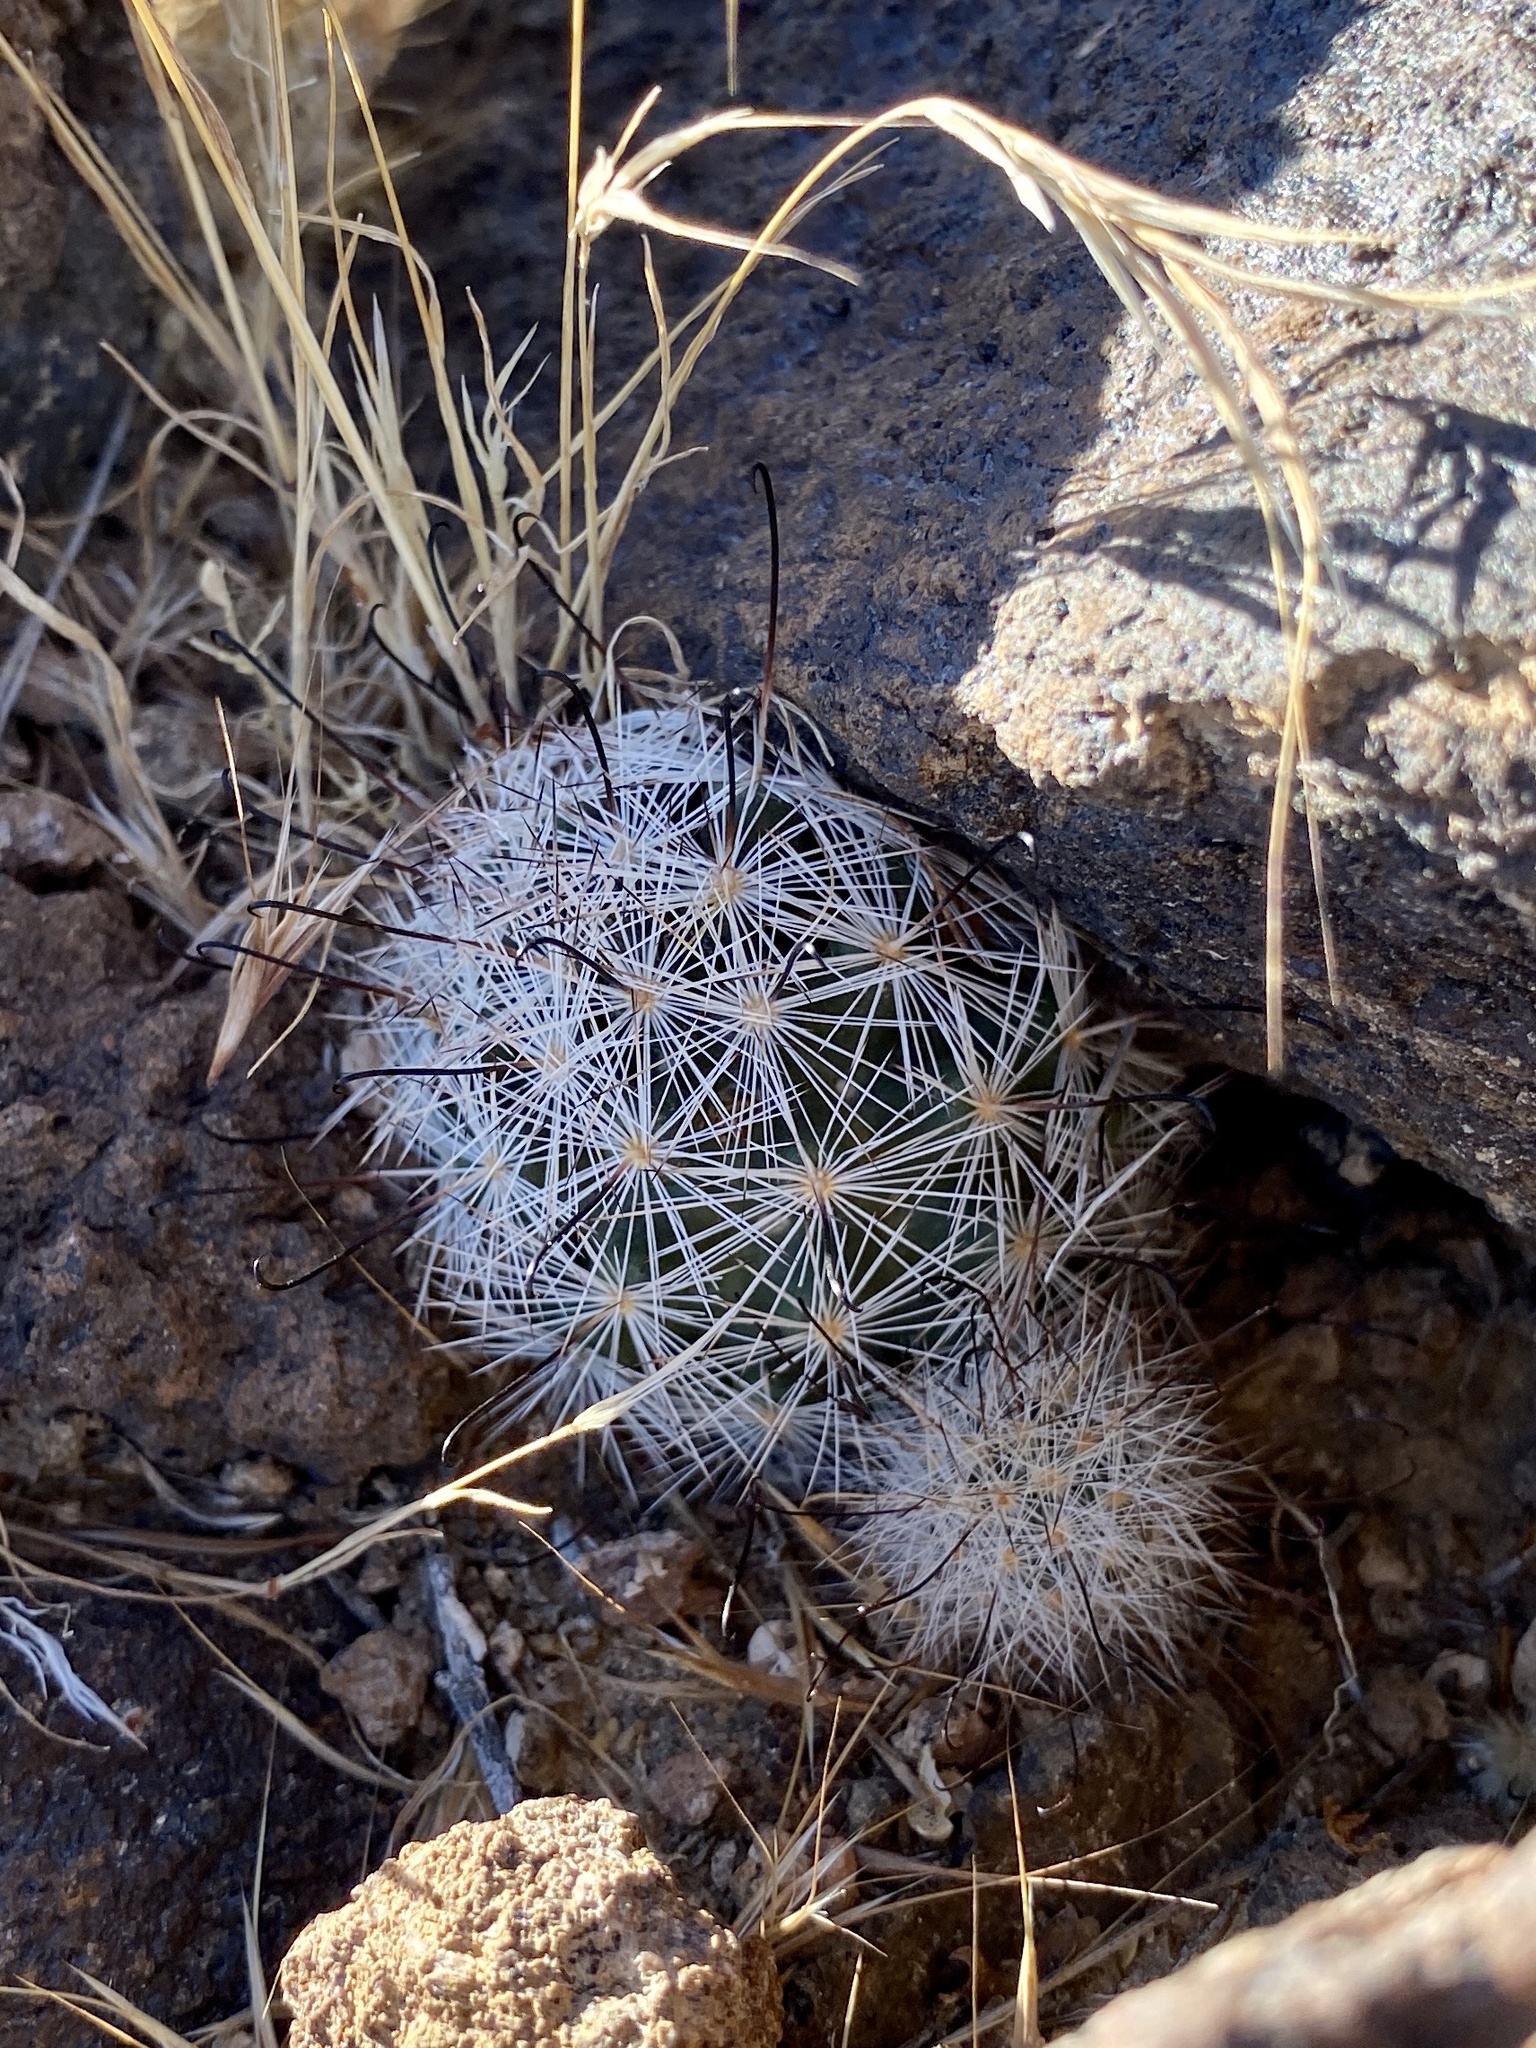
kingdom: Plantae
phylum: Tracheophyta
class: Magnoliopsida
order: Caryophyllales
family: Cactaceae
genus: Cochemiea
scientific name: Cochemiea tetrancistra
